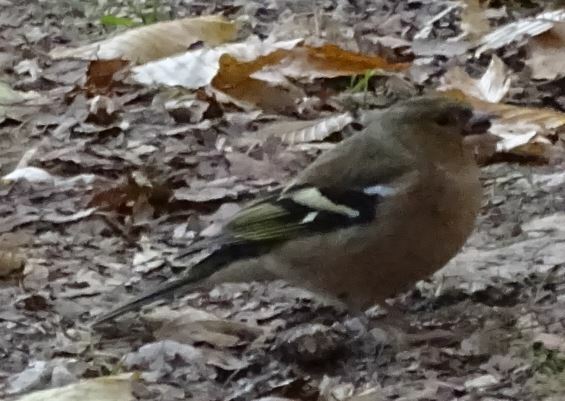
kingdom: Animalia
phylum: Chordata
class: Aves
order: Passeriformes
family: Fringillidae
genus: Fringilla
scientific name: Fringilla coelebs
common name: Common chaffinch
